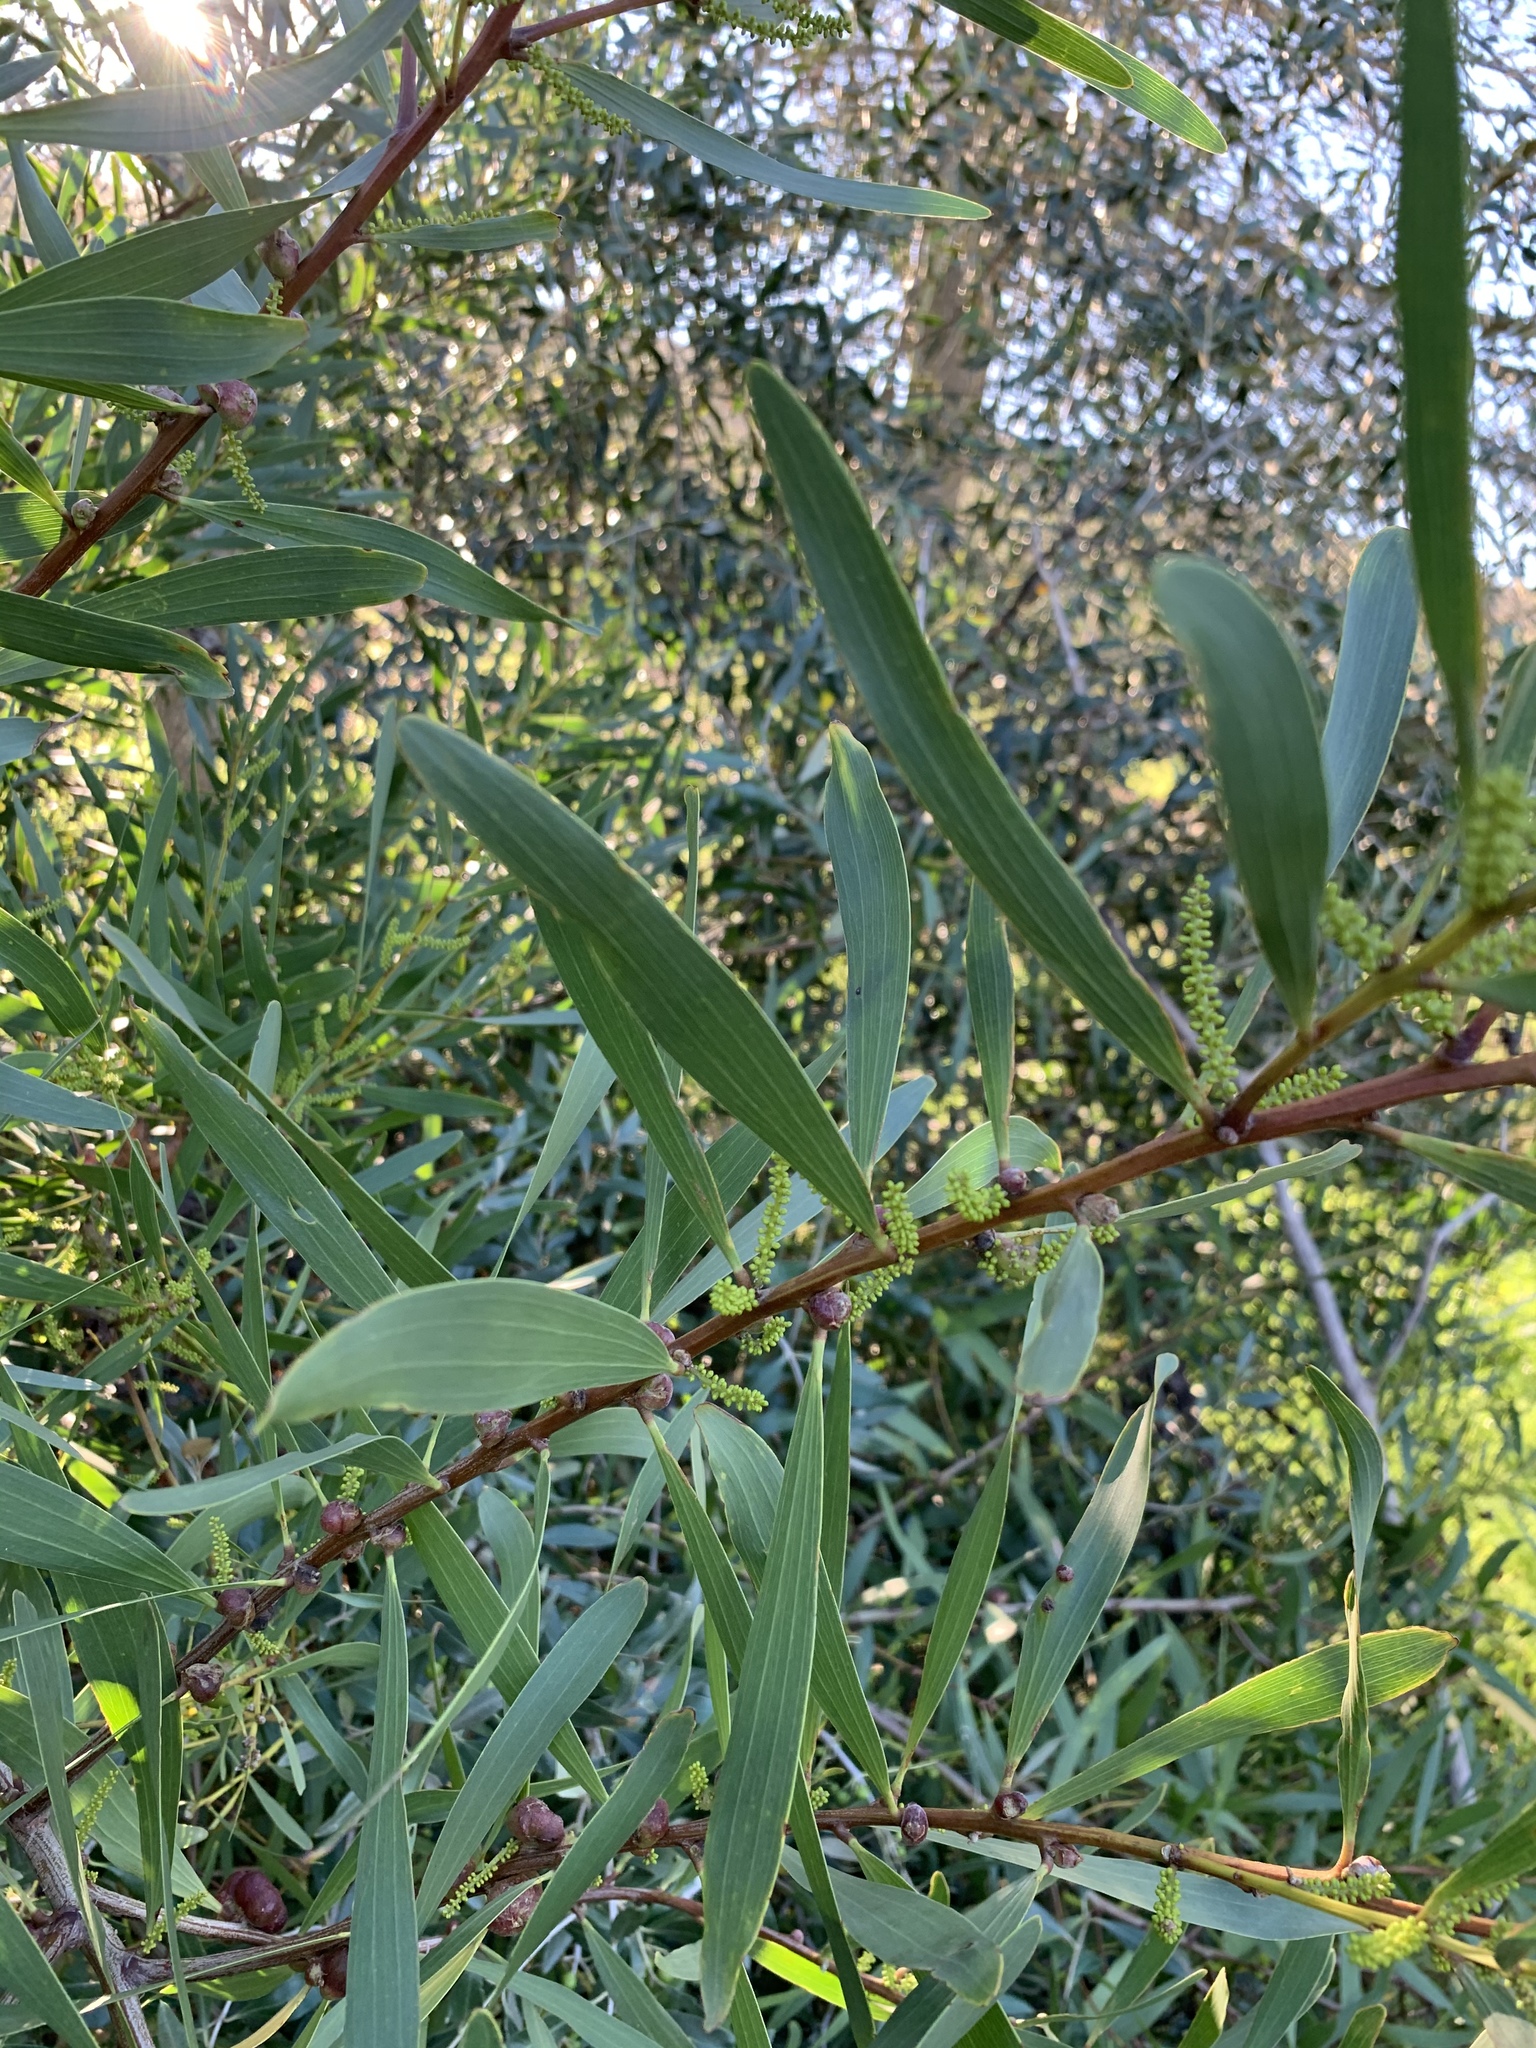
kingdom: Plantae
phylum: Tracheophyta
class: Magnoliopsida
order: Fabales
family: Fabaceae
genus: Acacia
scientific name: Acacia longifolia
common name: Sydney golden wattle
